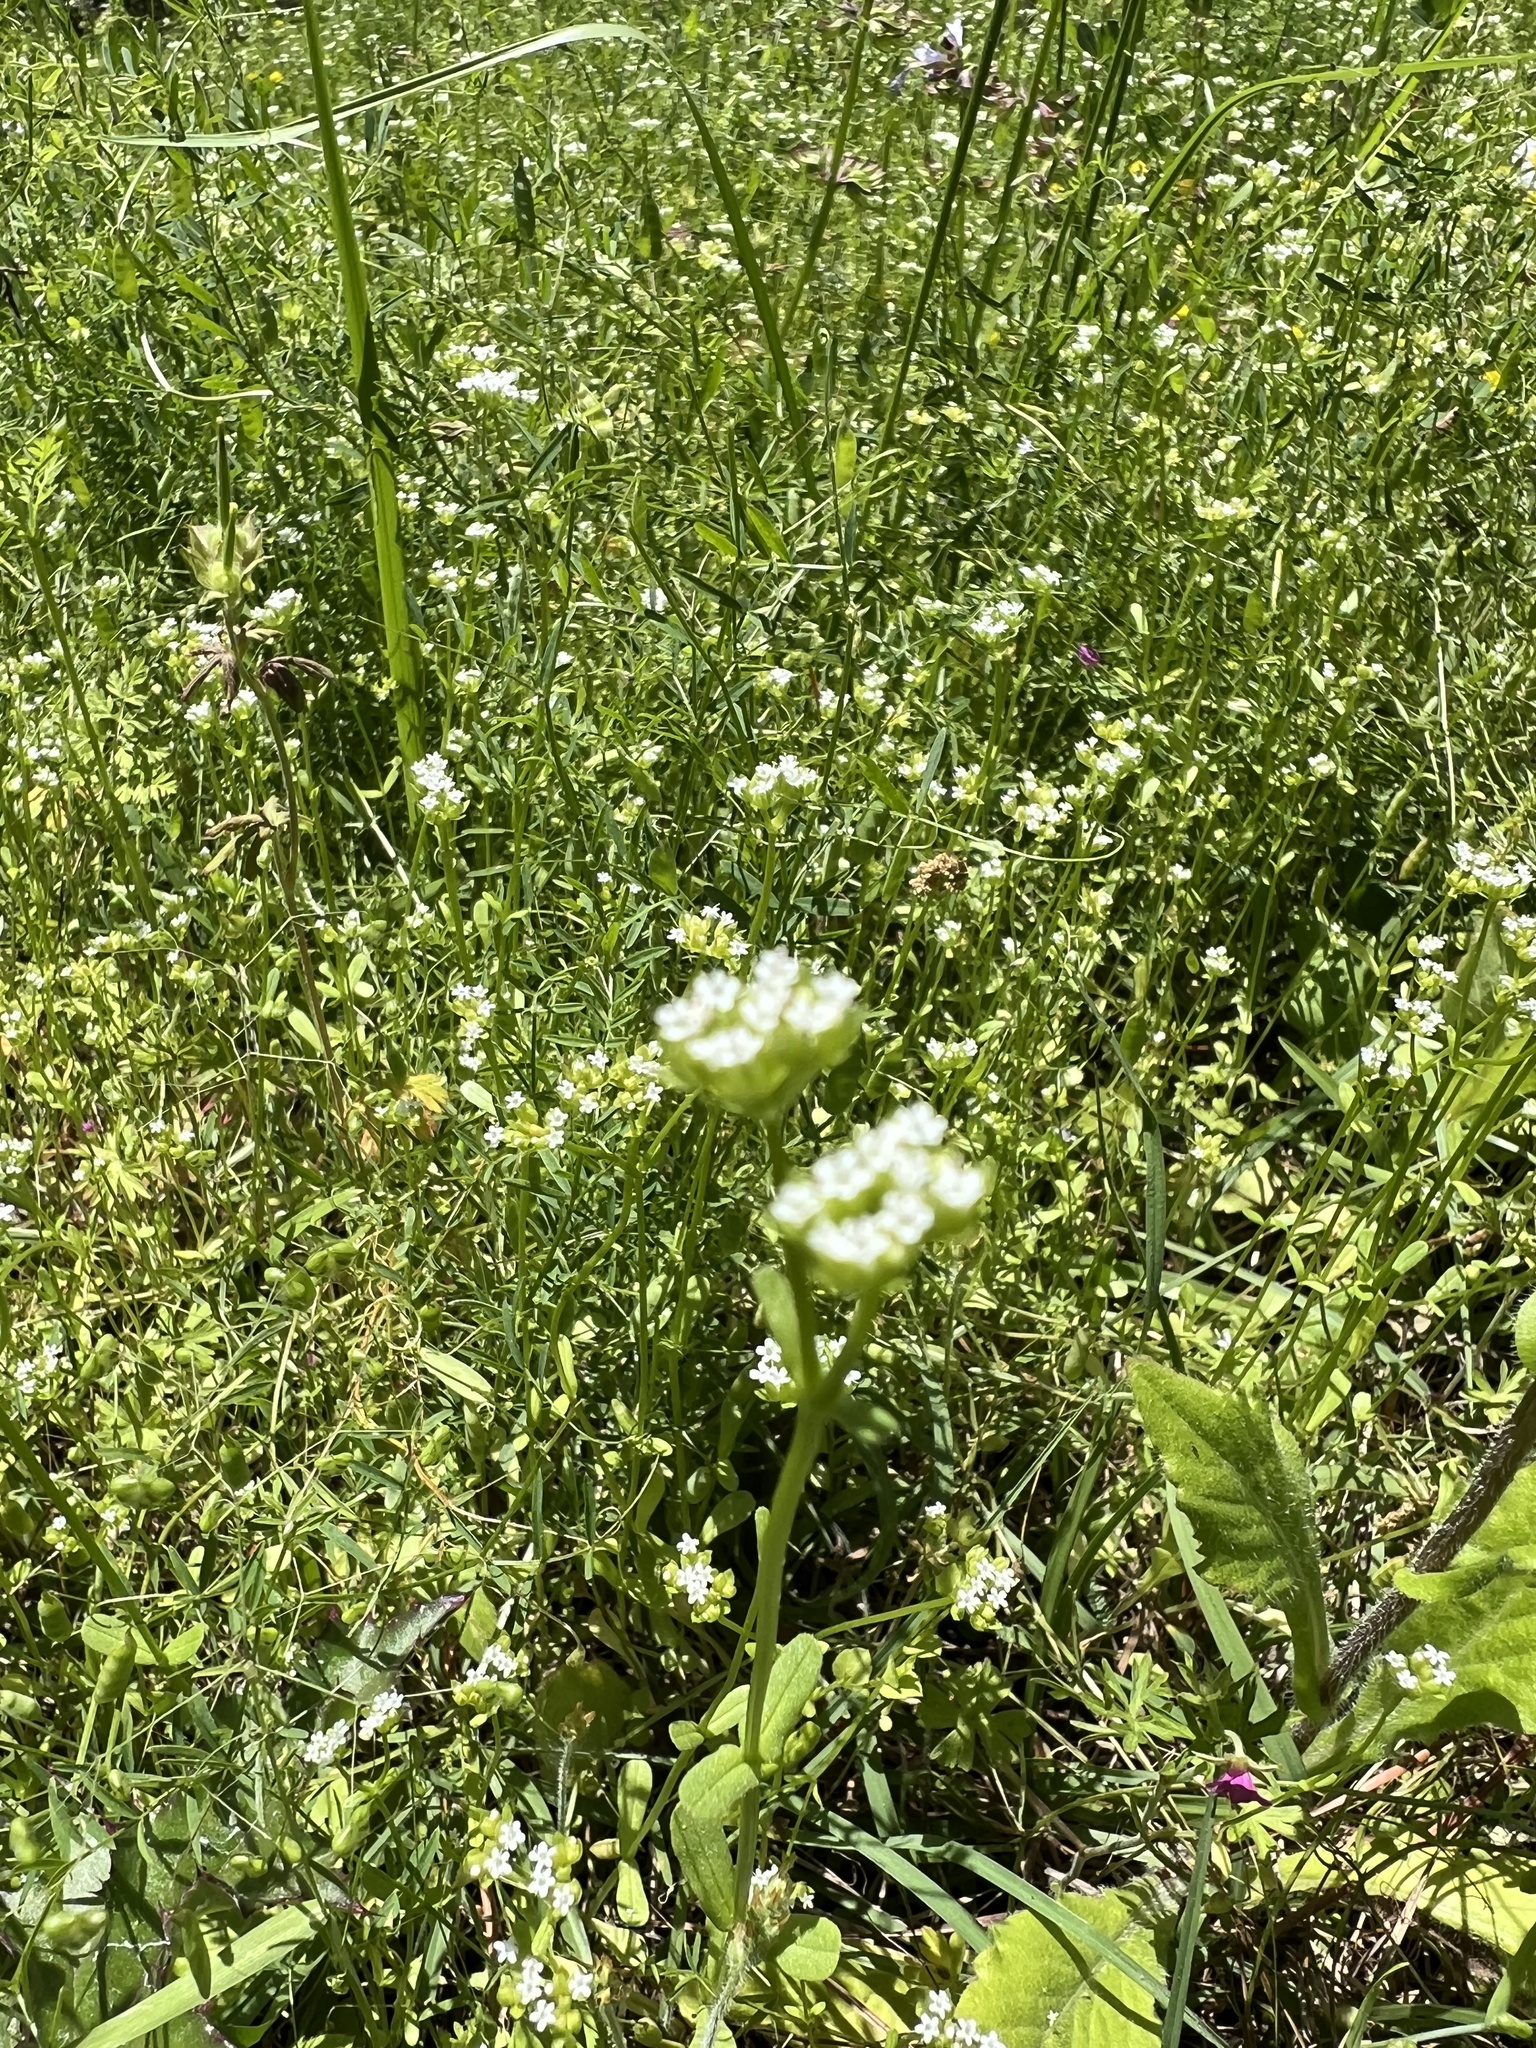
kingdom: Plantae
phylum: Tracheophyta
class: Magnoliopsida
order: Dipsacales
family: Caprifoliaceae
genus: Valerianella
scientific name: Valerianella radiata
